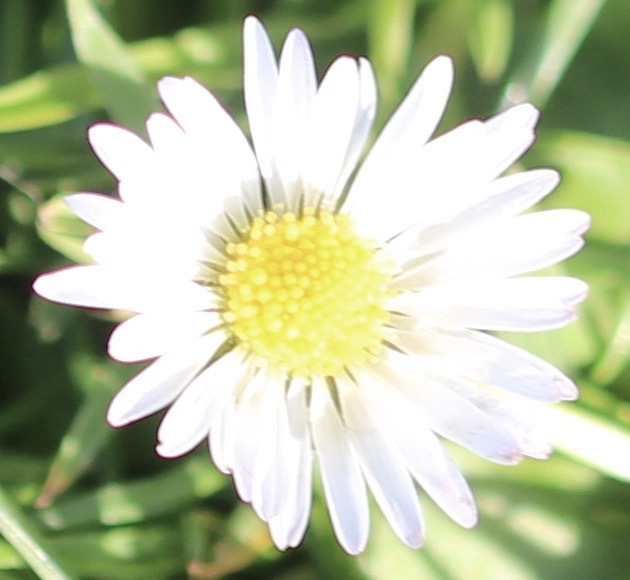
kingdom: Plantae
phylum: Tracheophyta
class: Magnoliopsida
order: Asterales
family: Asteraceae
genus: Bellis
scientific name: Bellis perennis
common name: Lawndaisy
